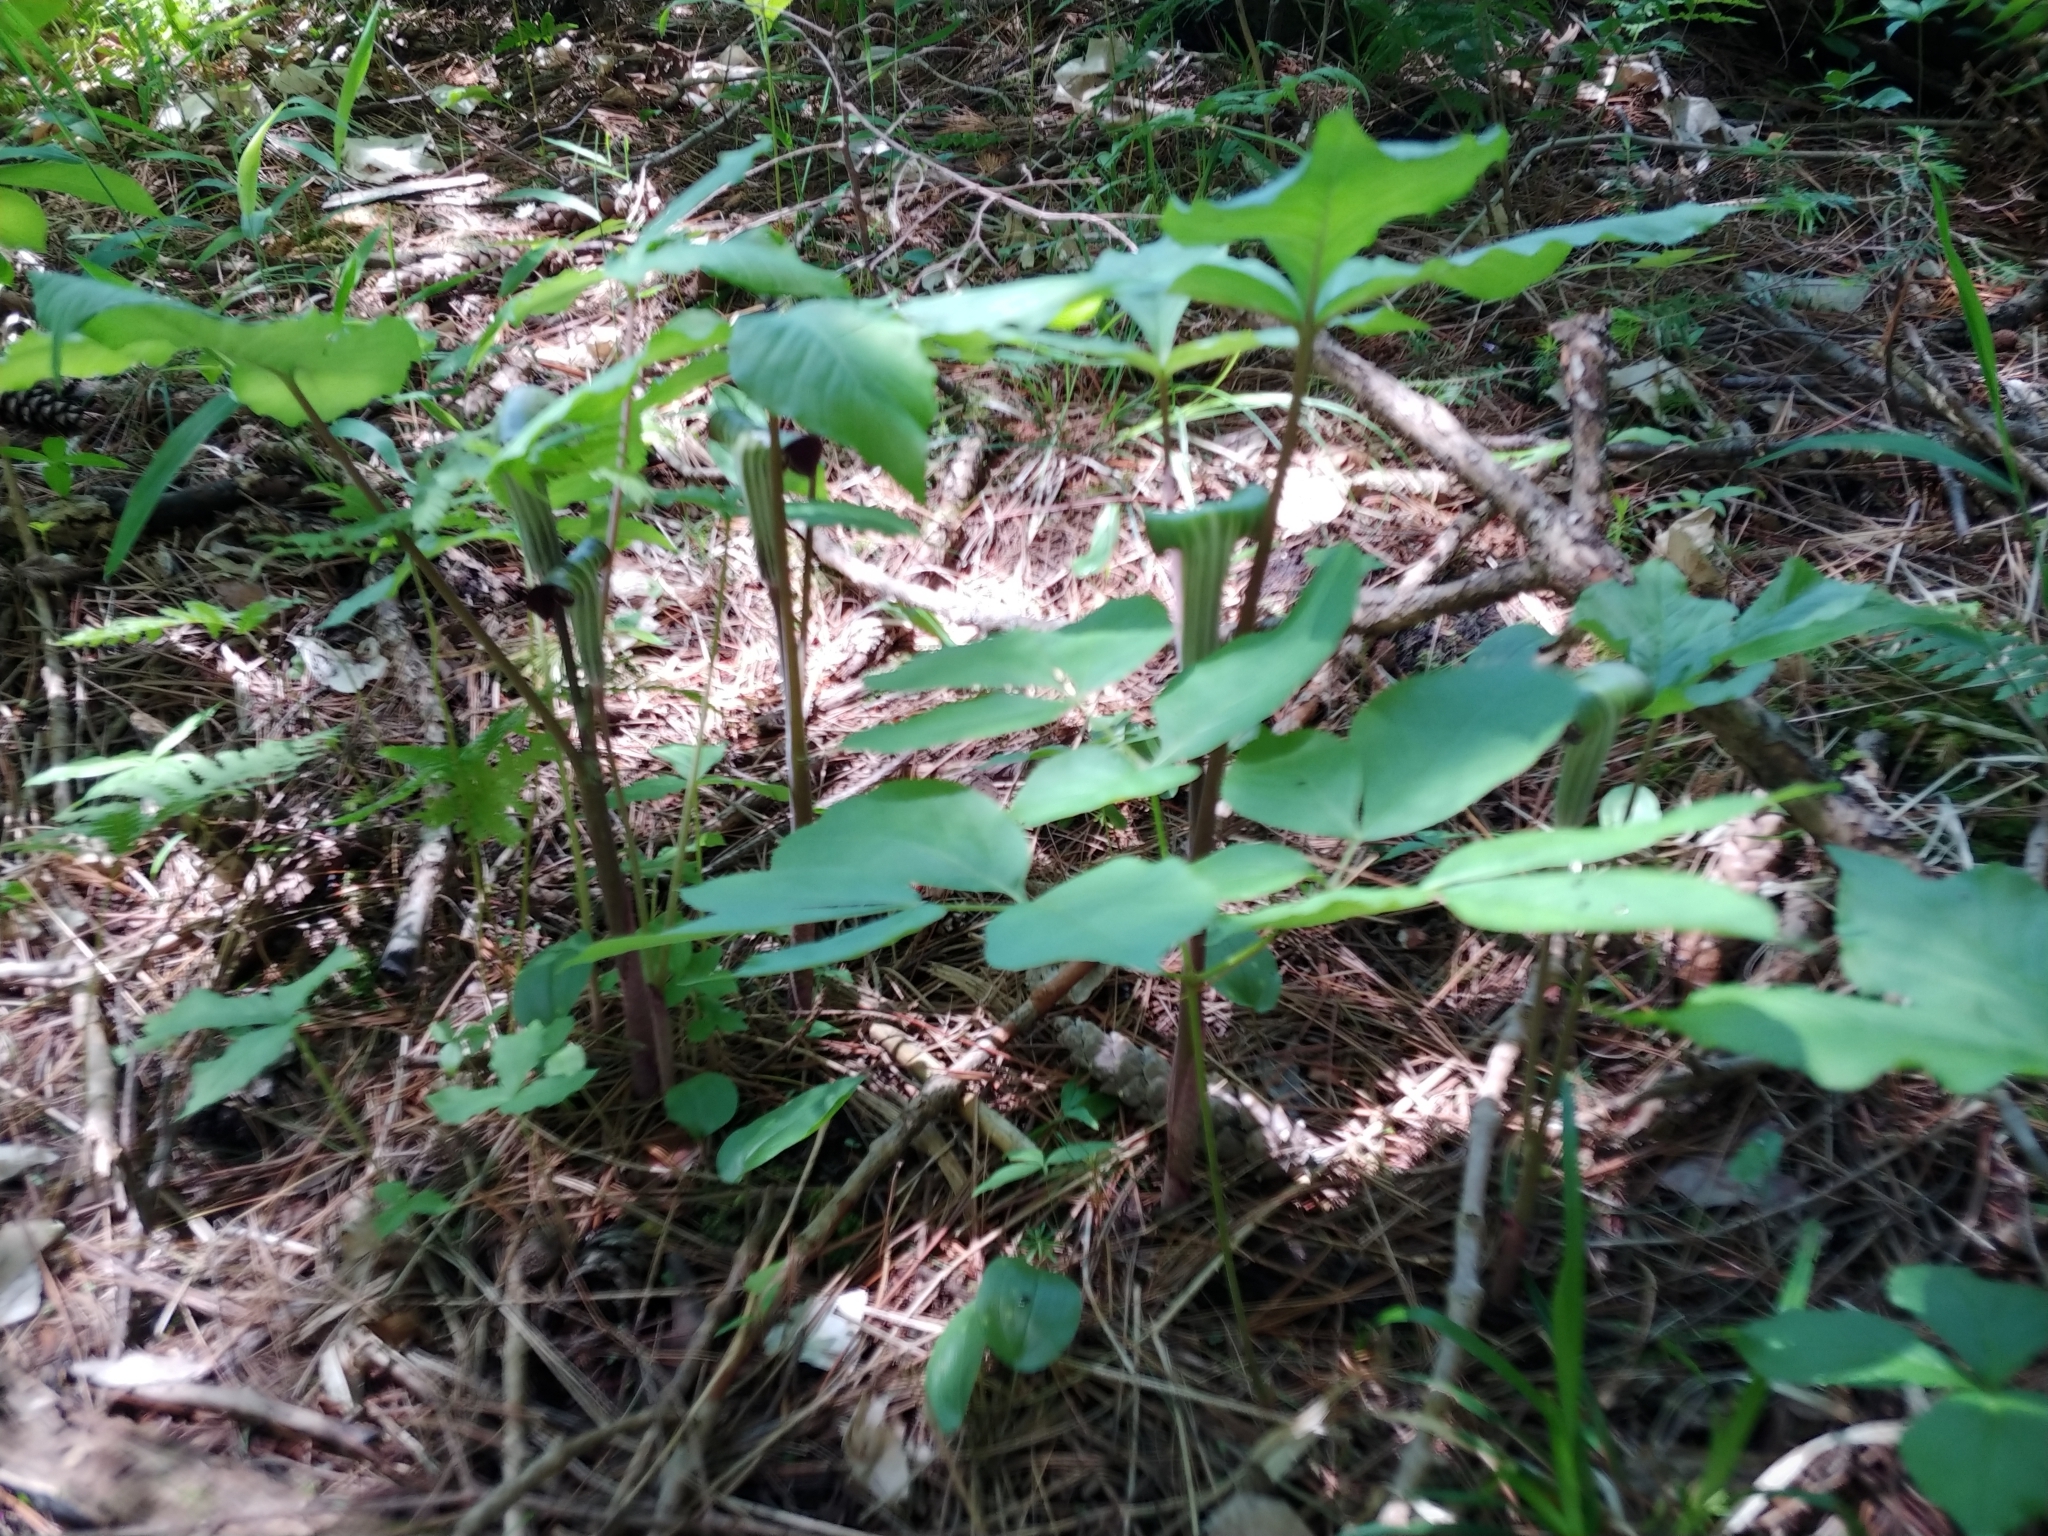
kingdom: Plantae
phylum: Tracheophyta
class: Liliopsida
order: Alismatales
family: Araceae
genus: Arisaema
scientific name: Arisaema triphyllum
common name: Jack-in-the-pulpit
